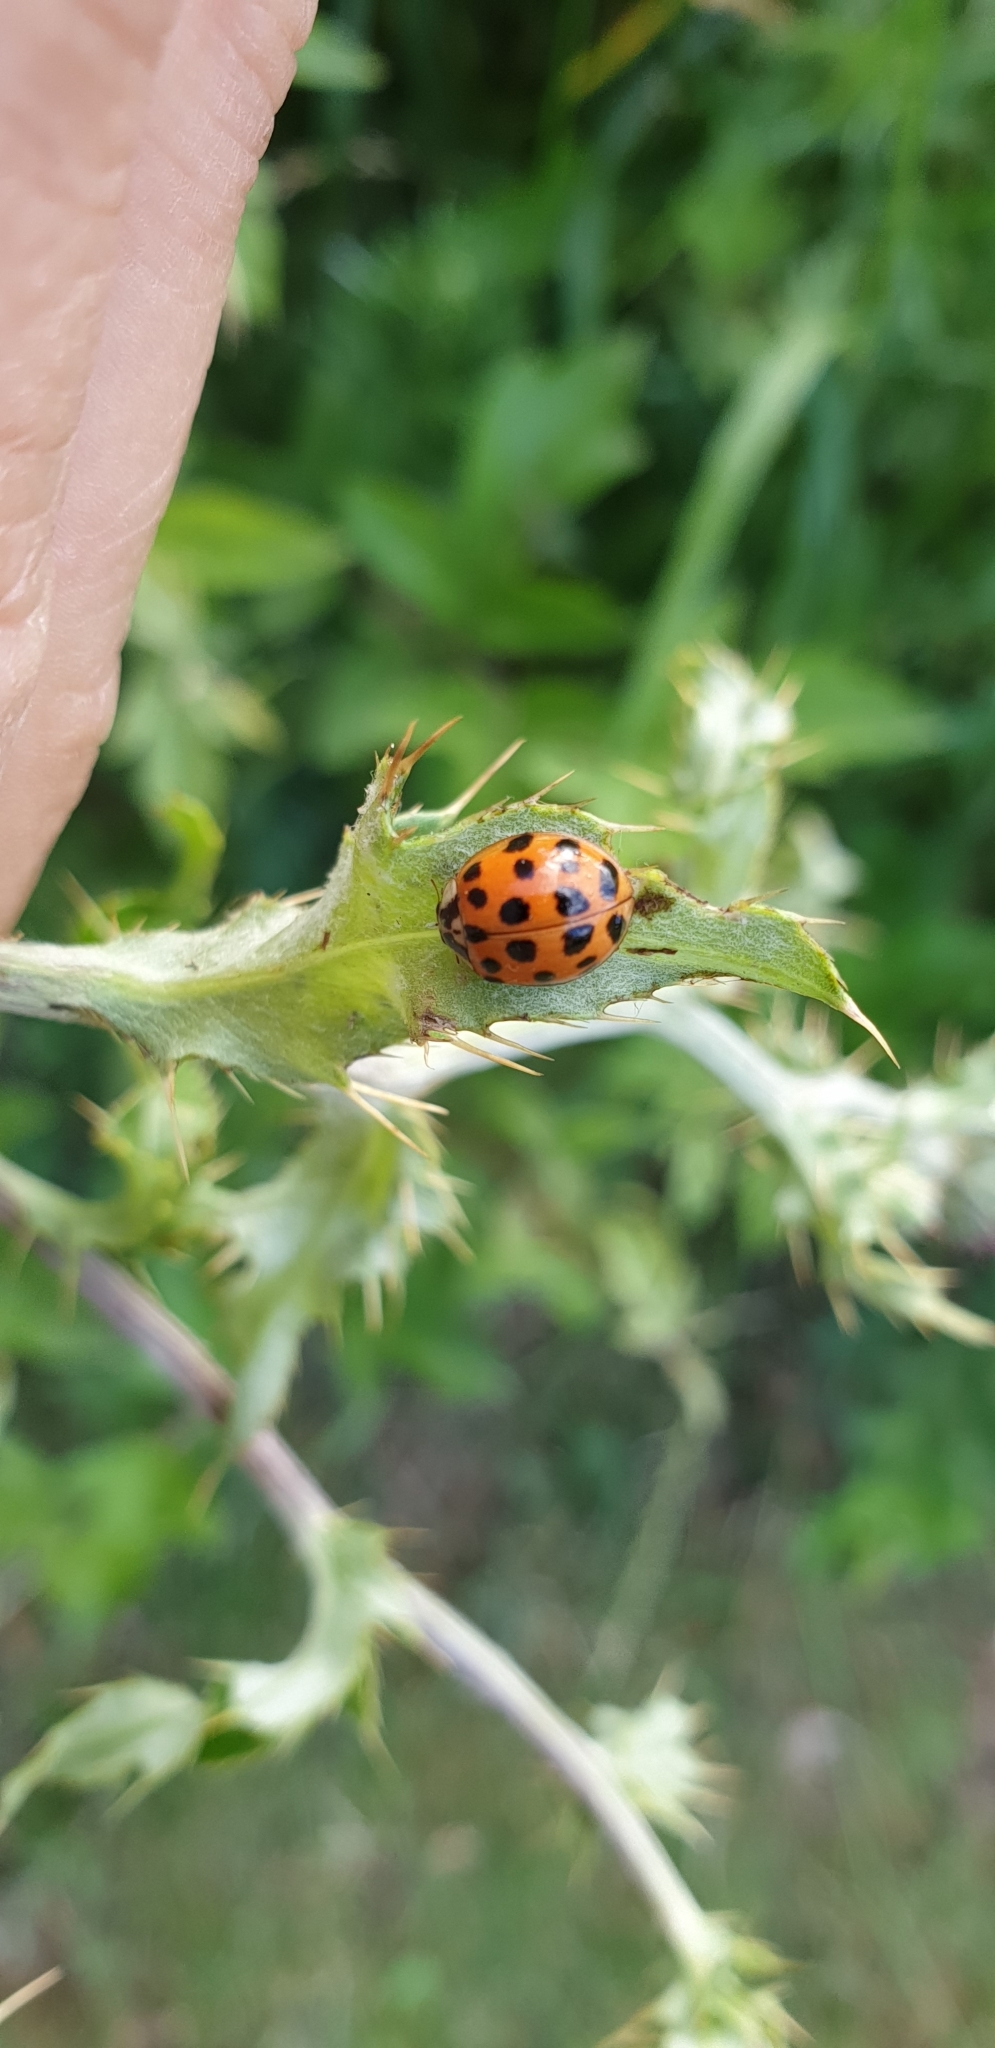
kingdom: Animalia
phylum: Arthropoda
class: Insecta
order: Coleoptera
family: Coccinellidae
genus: Harmonia
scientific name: Harmonia axyridis
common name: Harlequin ladybird
